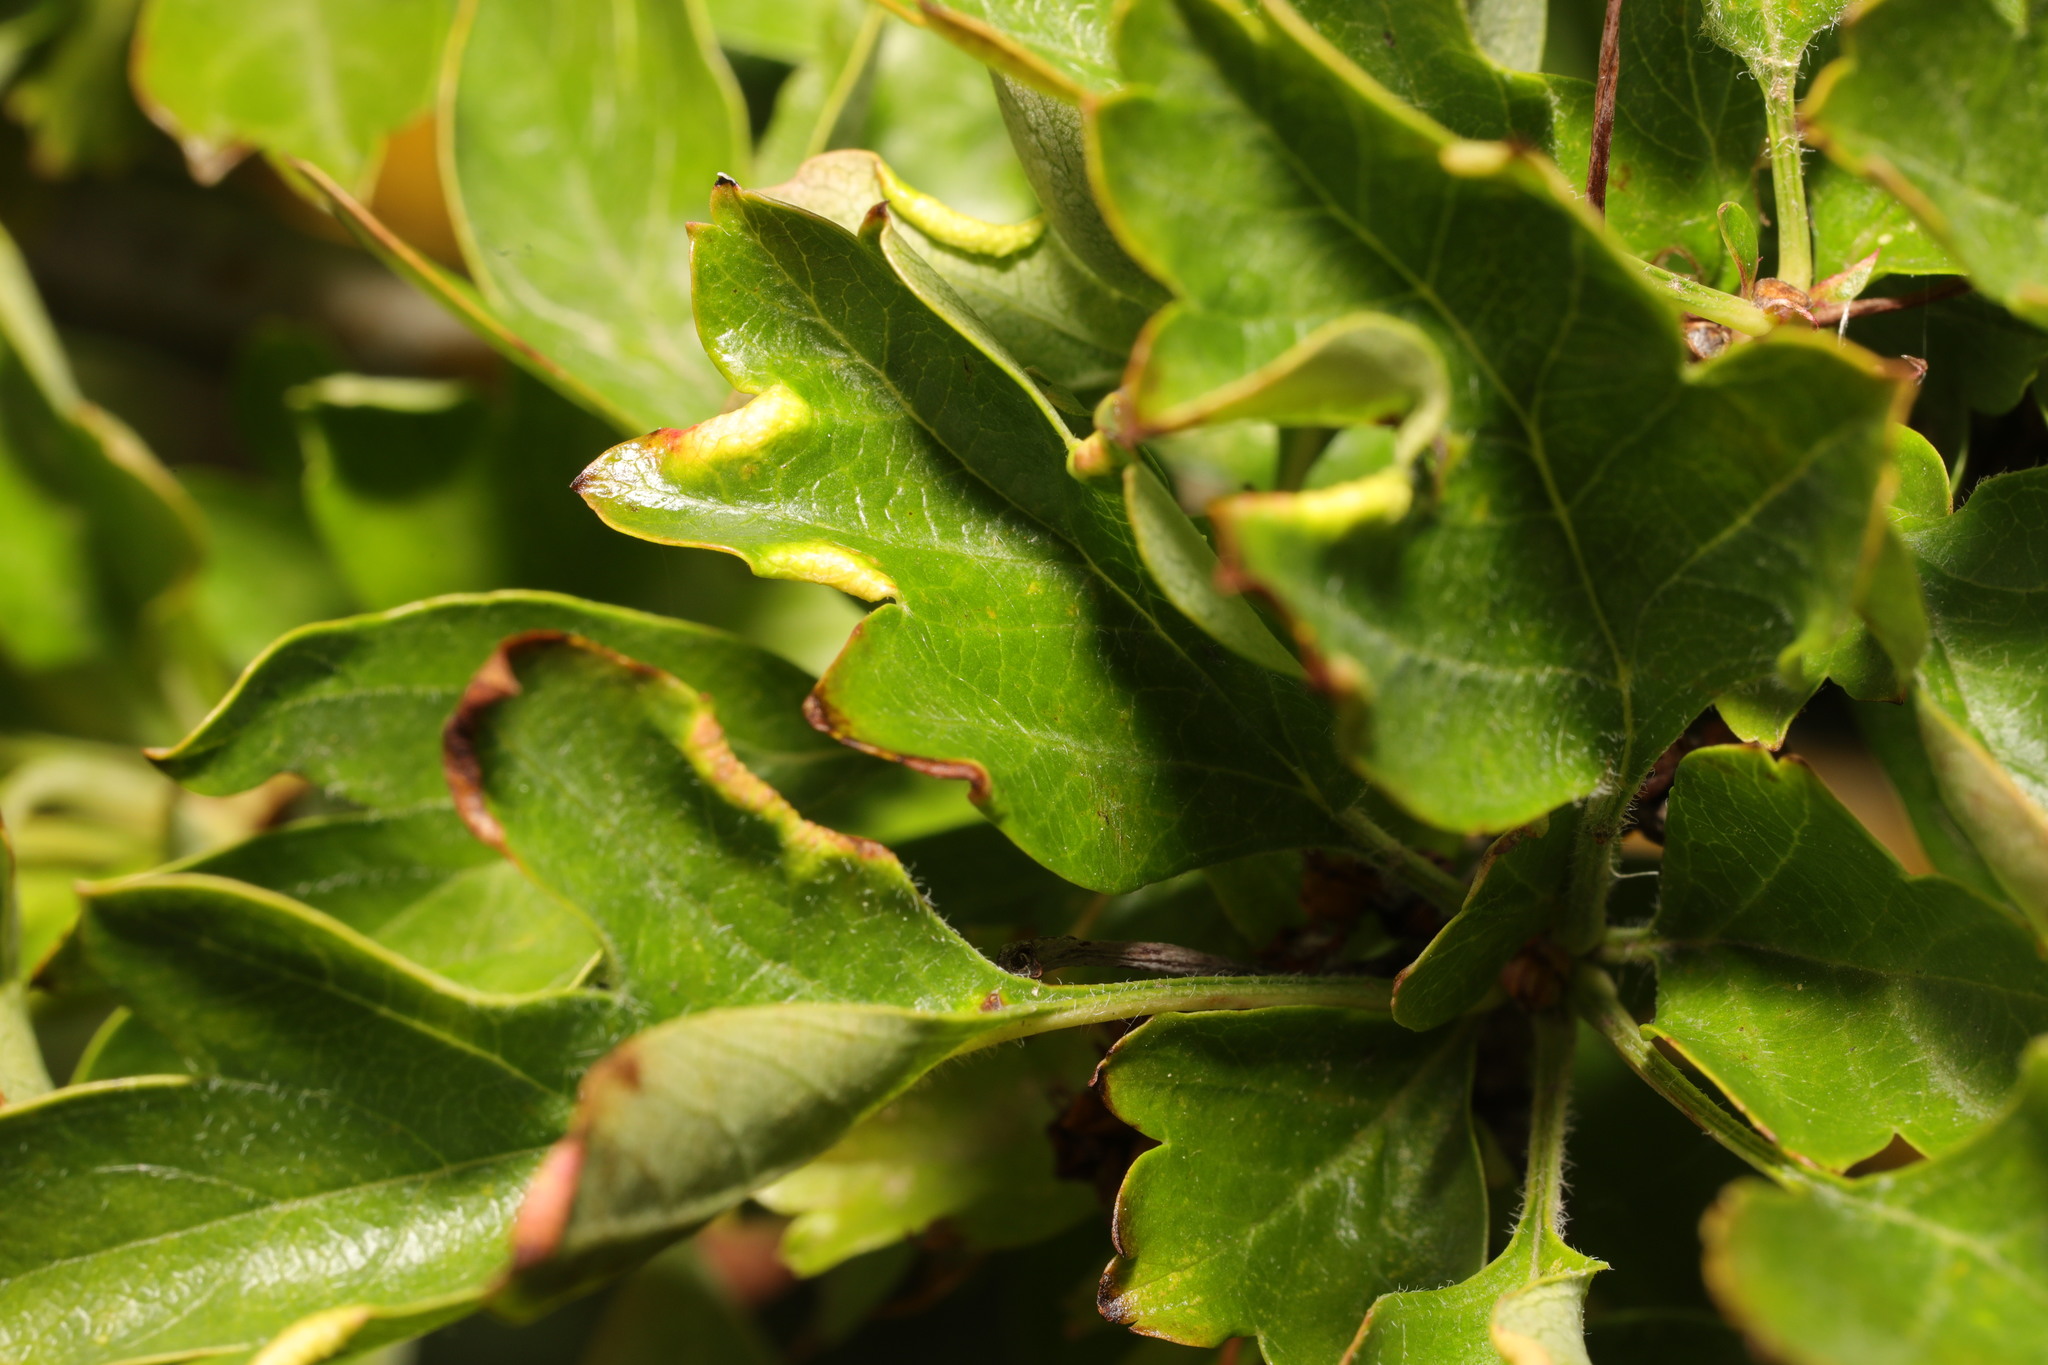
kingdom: Animalia
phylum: Arthropoda
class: Arachnida
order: Trombidiformes
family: Eriophyidae
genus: Phyllocoptes
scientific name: Phyllocoptes goniothorax
